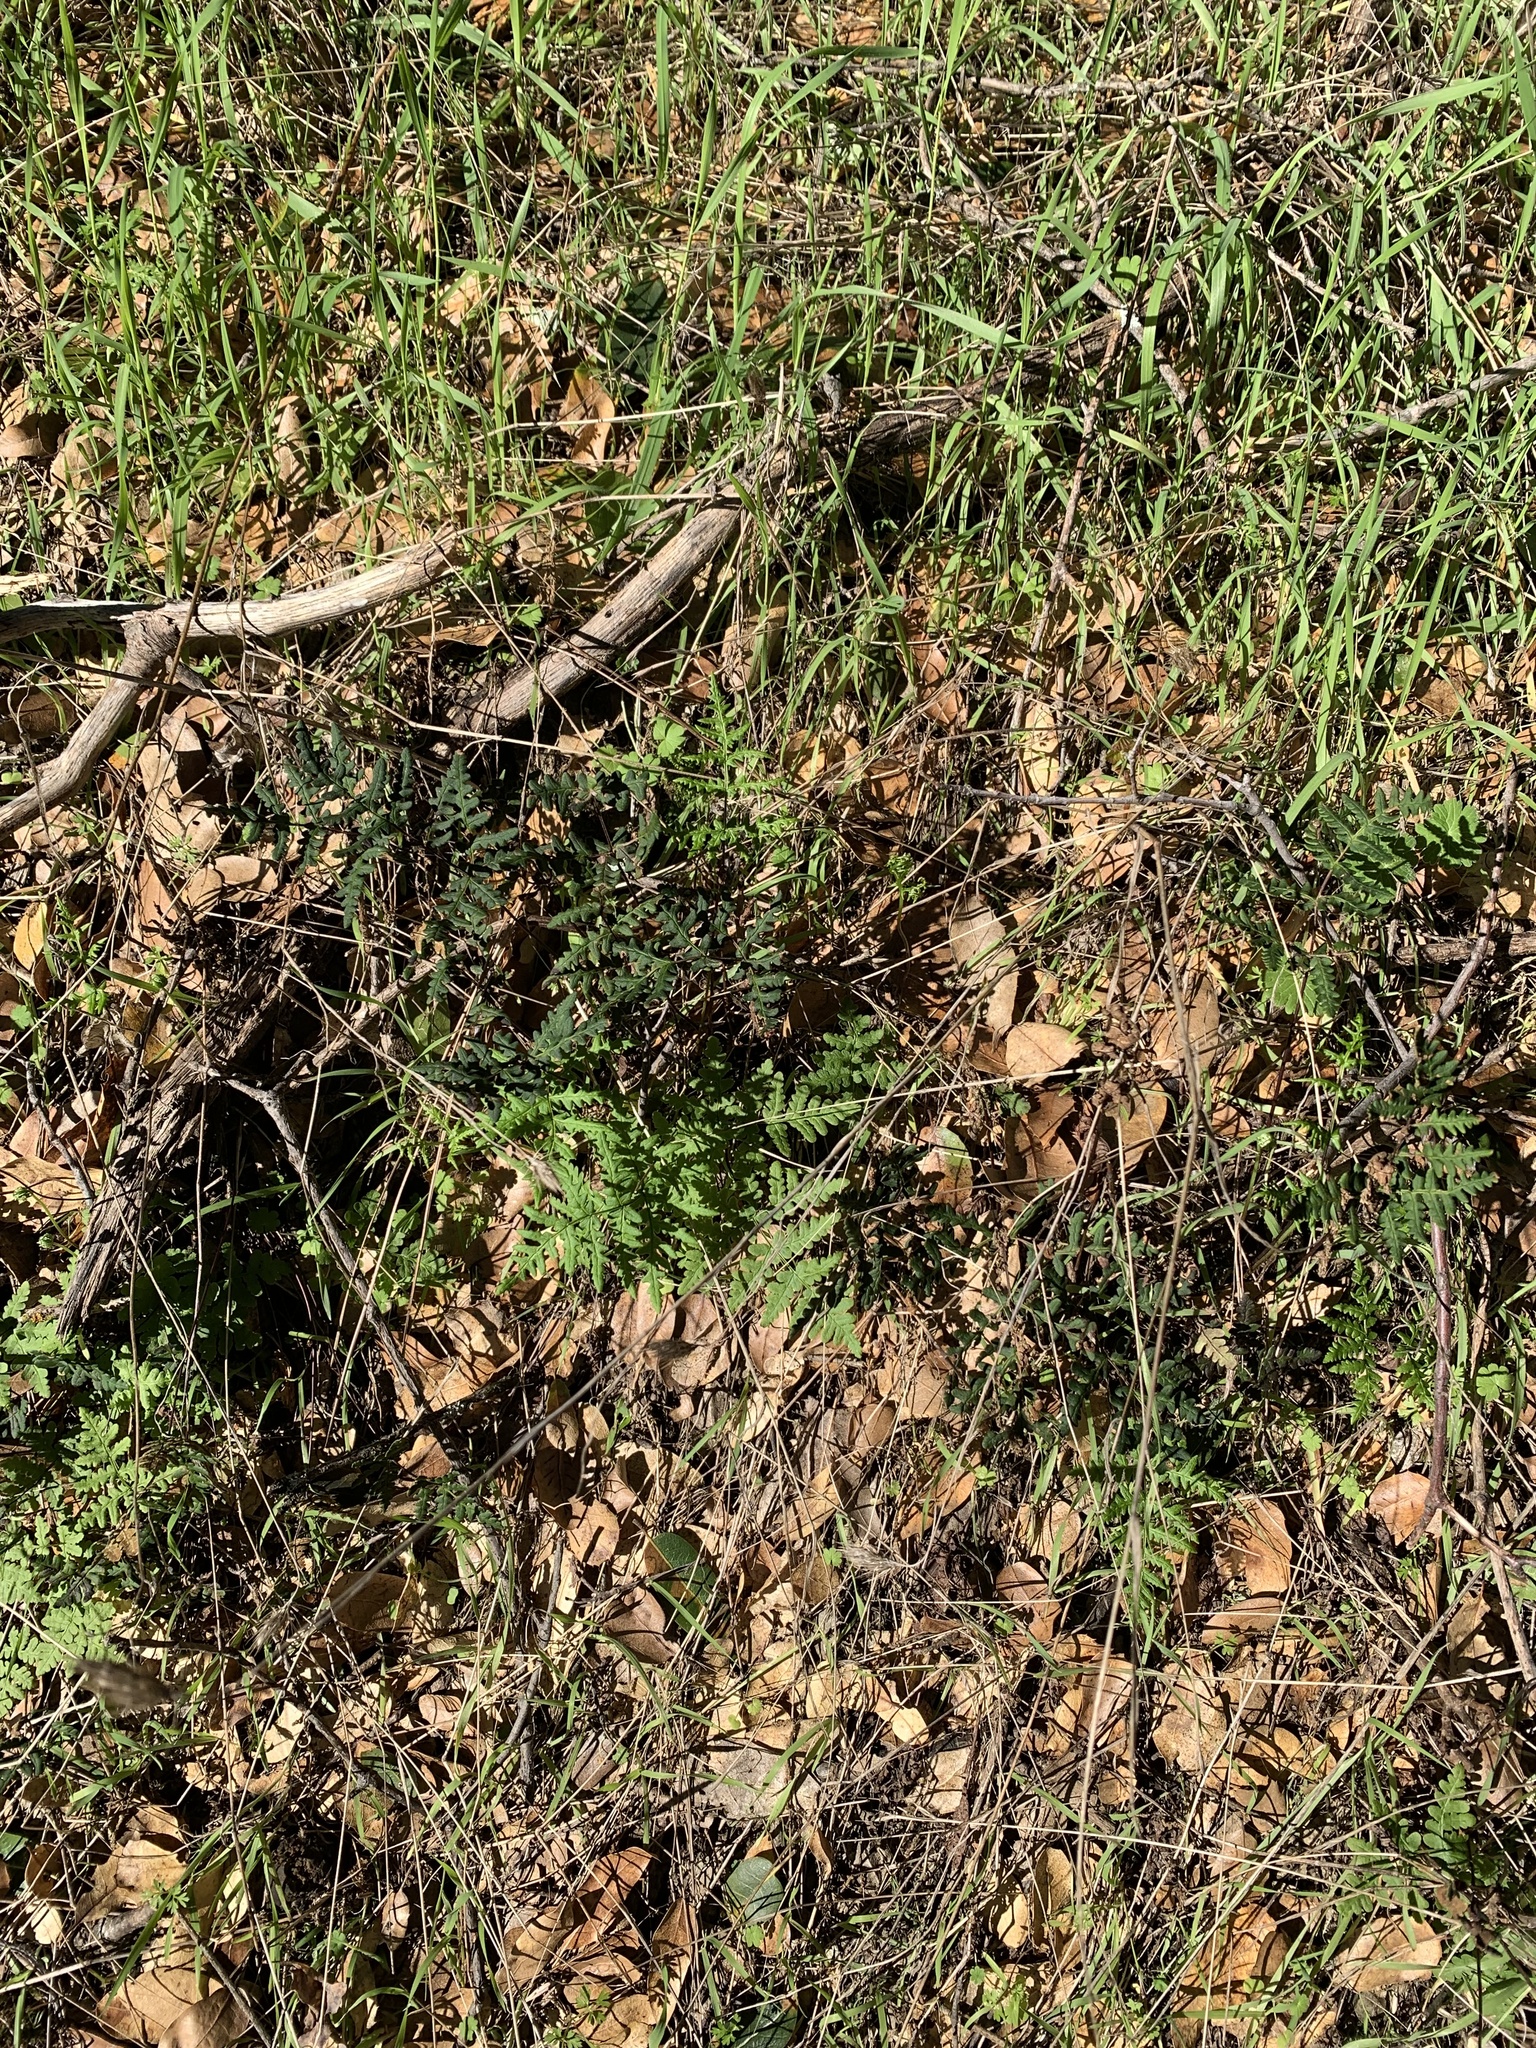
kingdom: Plantae
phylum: Tracheophyta
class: Polypodiopsida
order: Polypodiales
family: Pteridaceae
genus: Pentagramma
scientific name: Pentagramma triangularis
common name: Gold fern
